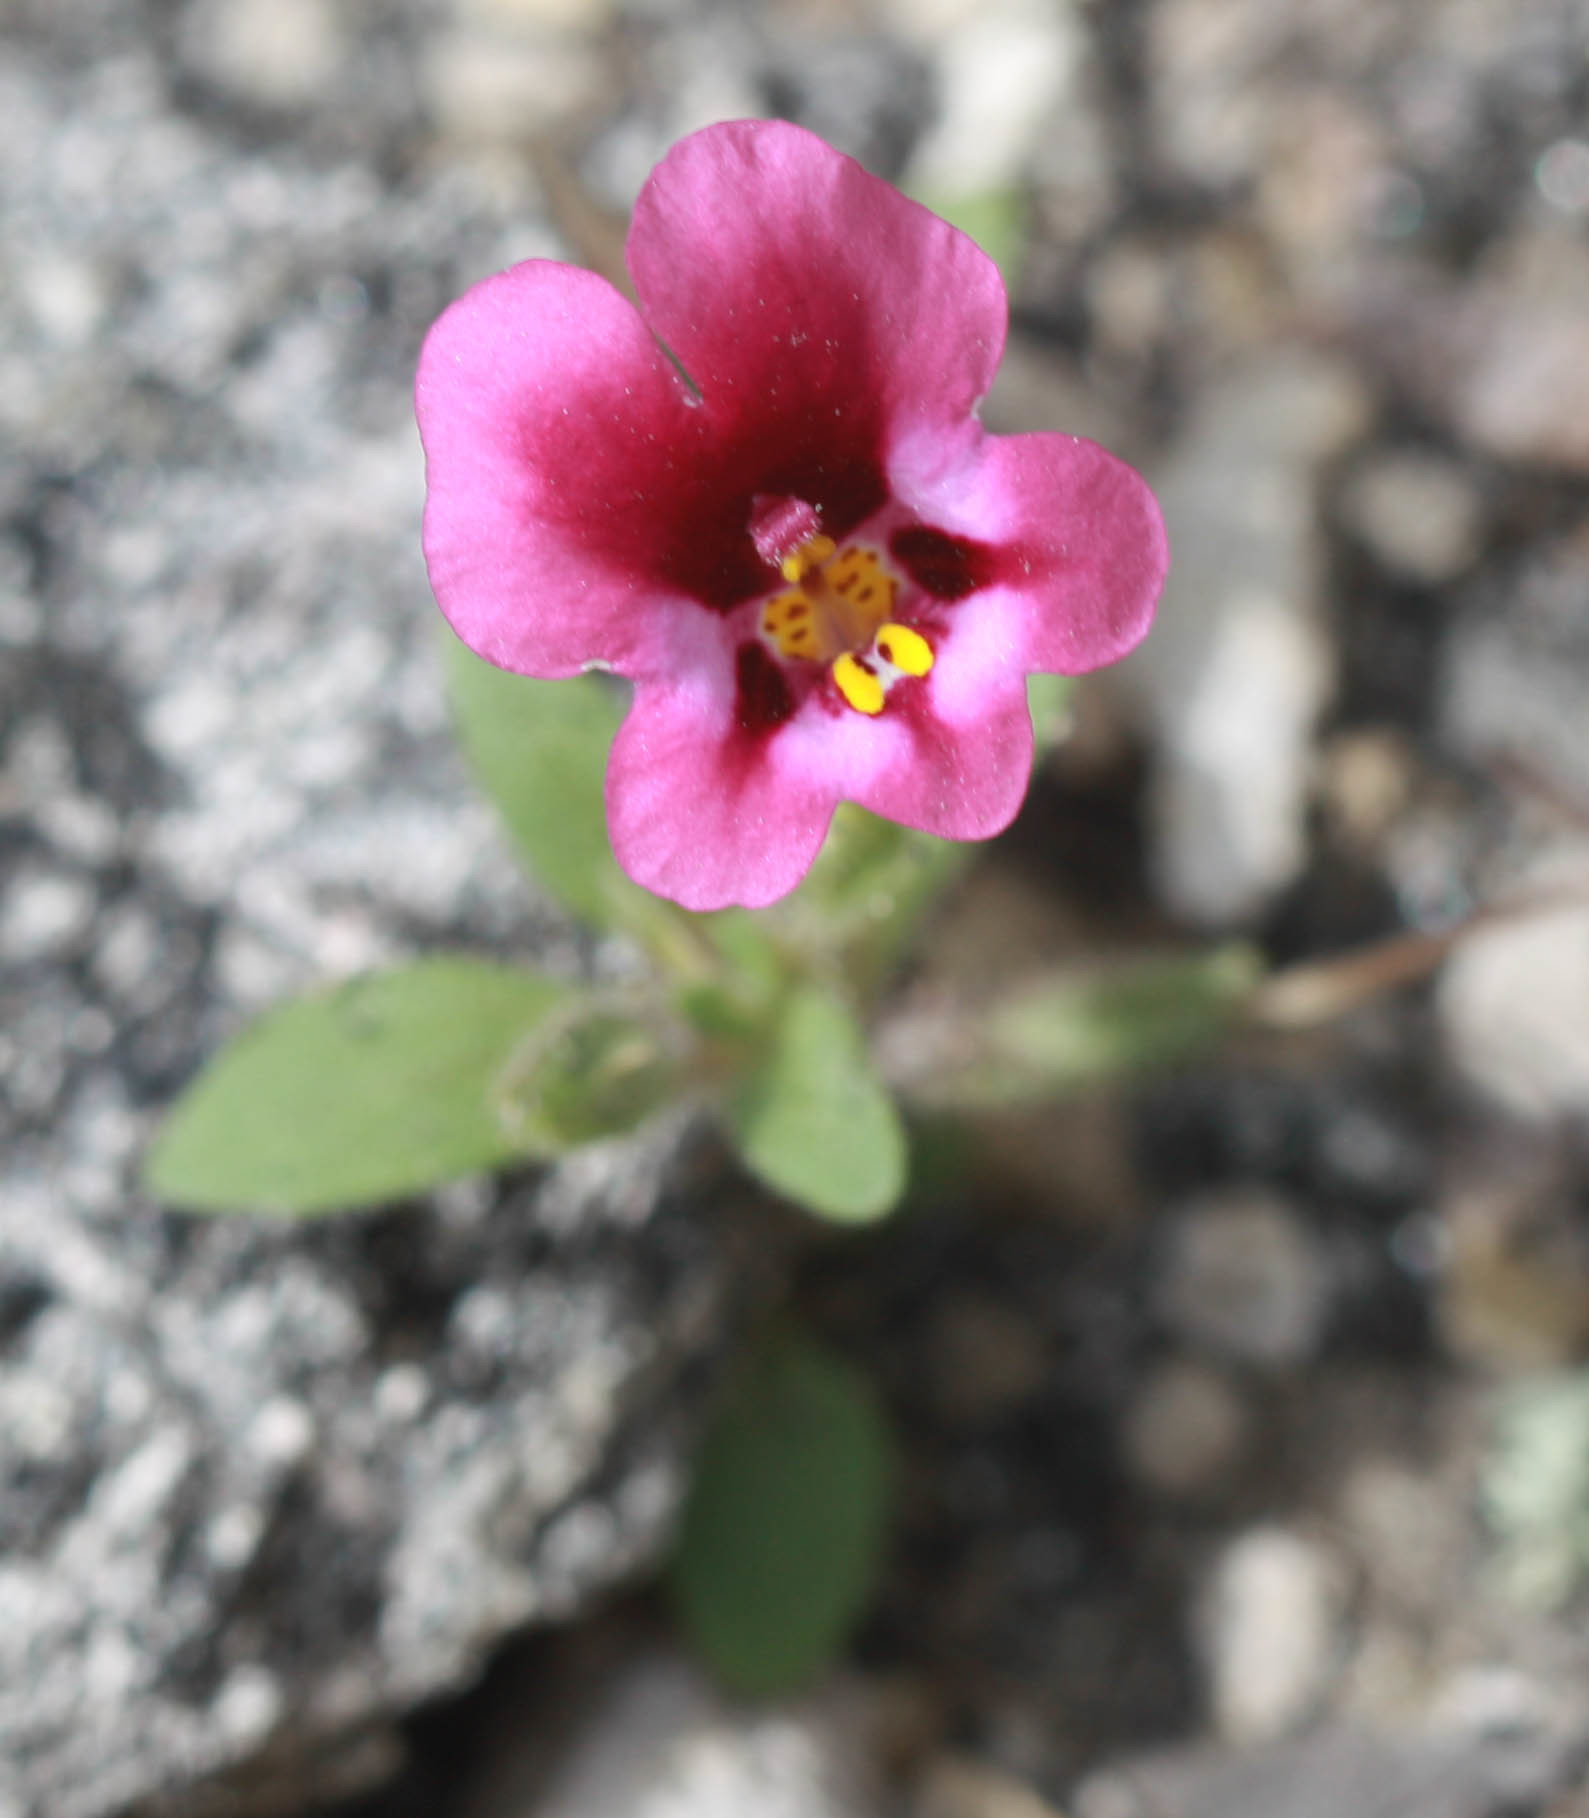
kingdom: Plantae
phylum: Tracheophyta
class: Magnoliopsida
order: Lamiales
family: Phrymaceae
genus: Diplacus
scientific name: Diplacus kelloggii
